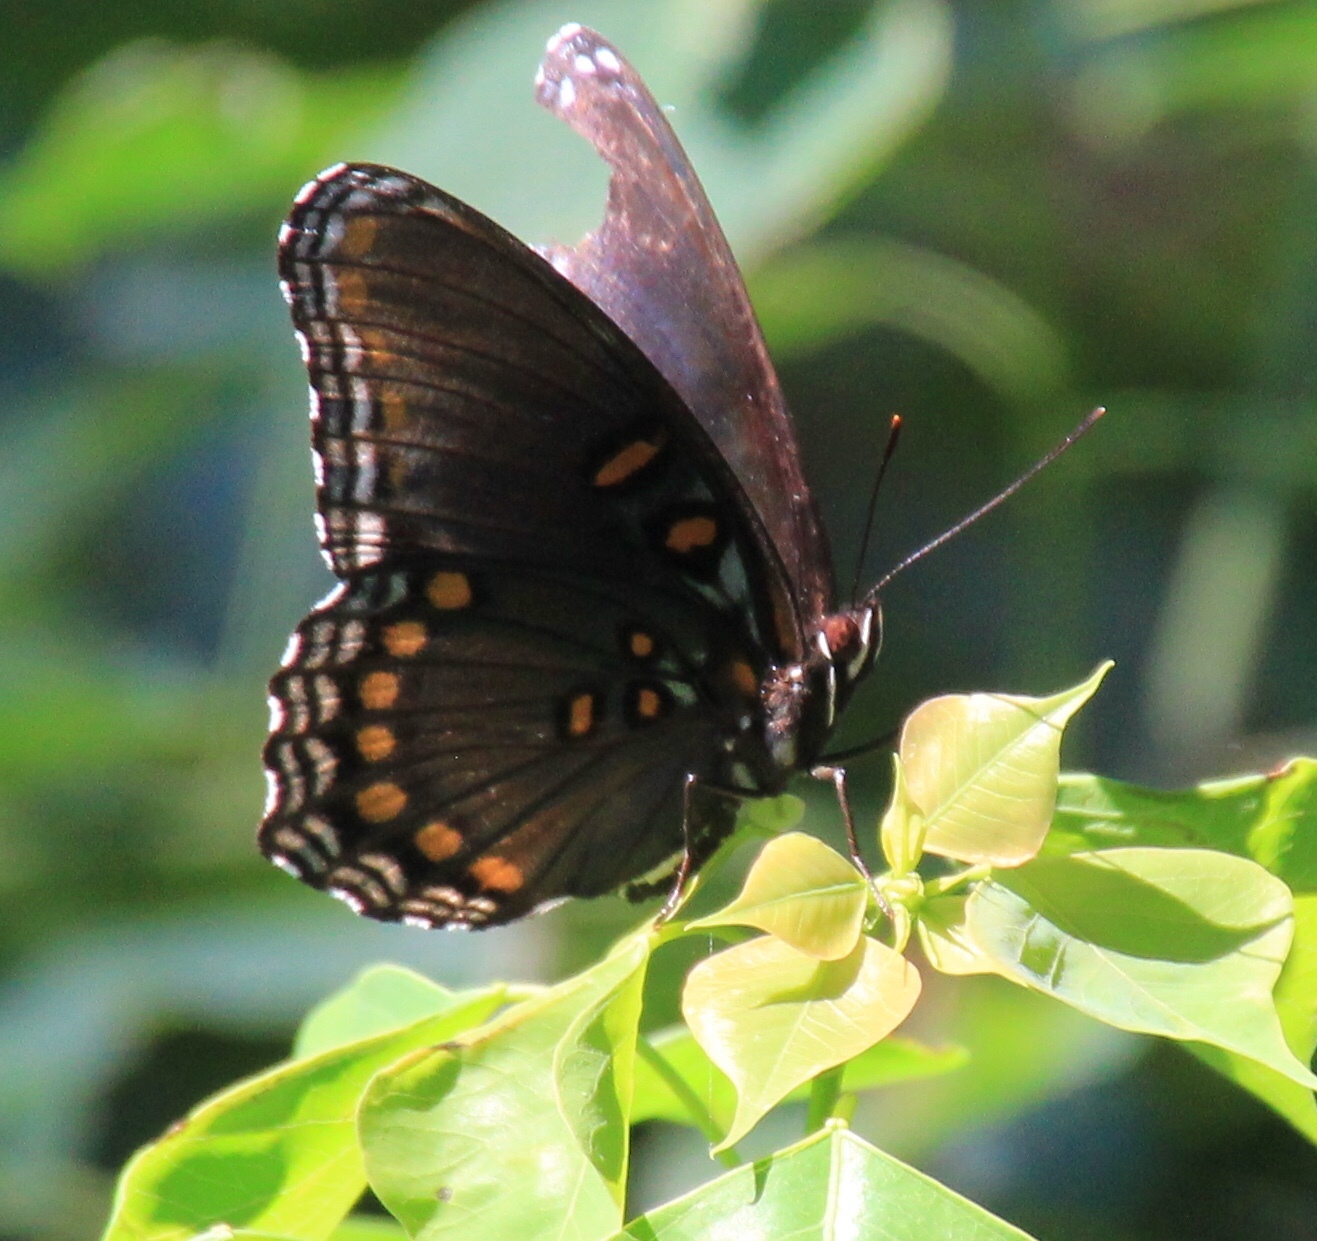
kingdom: Animalia
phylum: Arthropoda
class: Insecta
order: Lepidoptera
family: Nymphalidae
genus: Limenitis
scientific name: Limenitis astyanax
